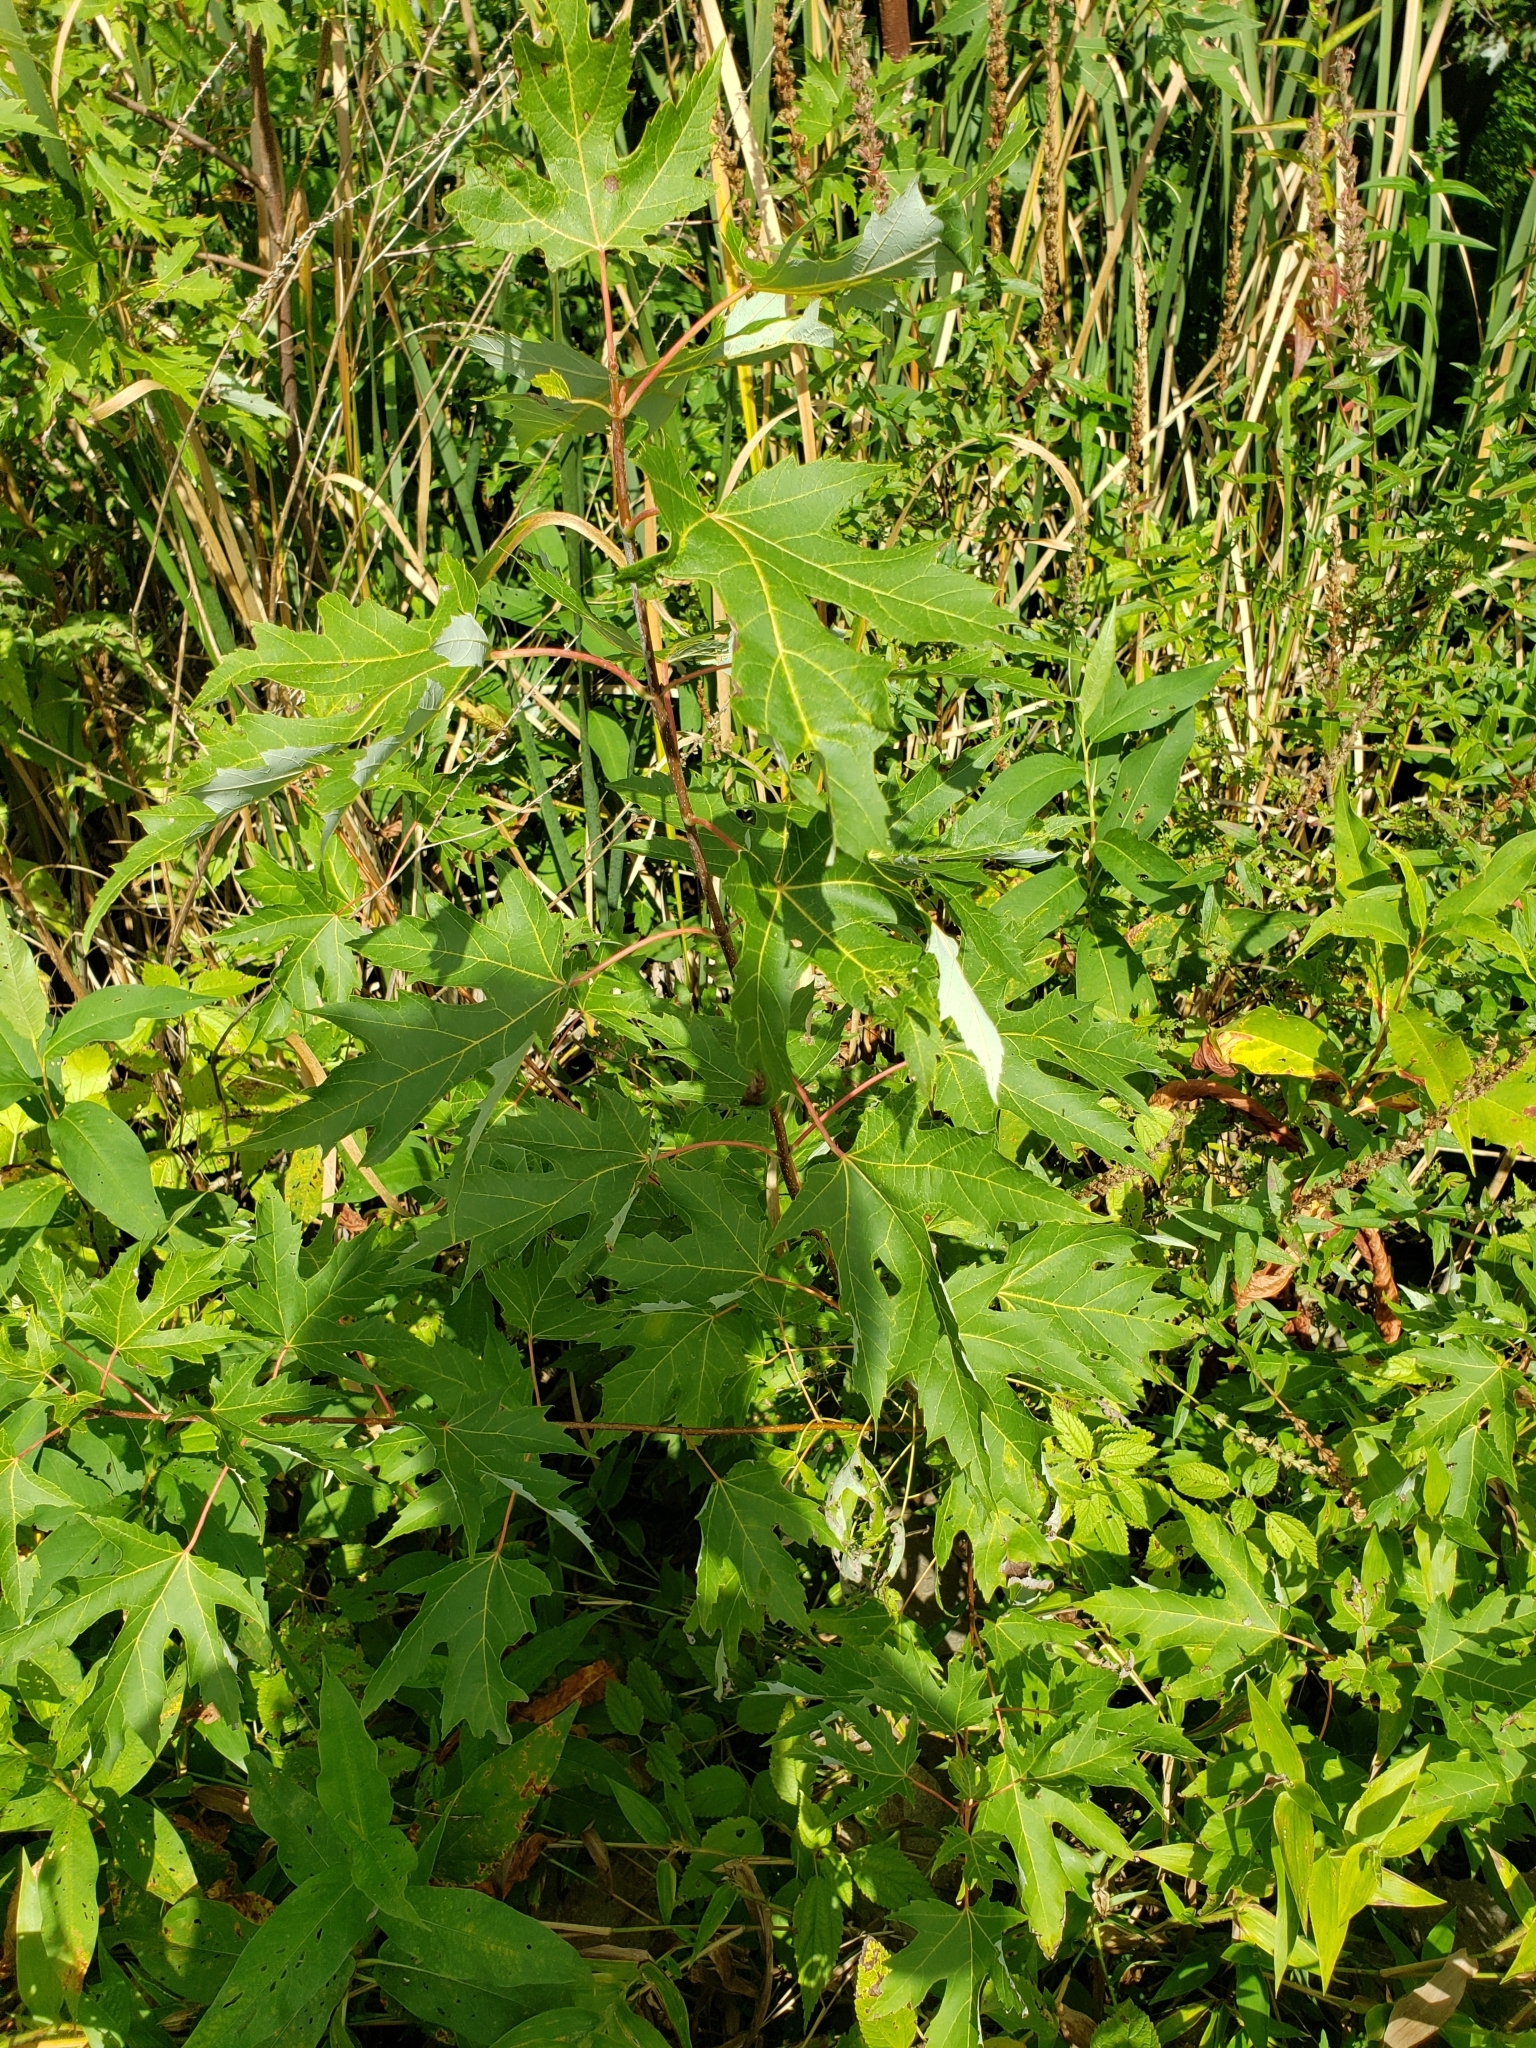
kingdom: Plantae
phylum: Tracheophyta
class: Magnoliopsida
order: Sapindales
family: Sapindaceae
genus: Acer
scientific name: Acer saccharinum
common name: Silver maple
